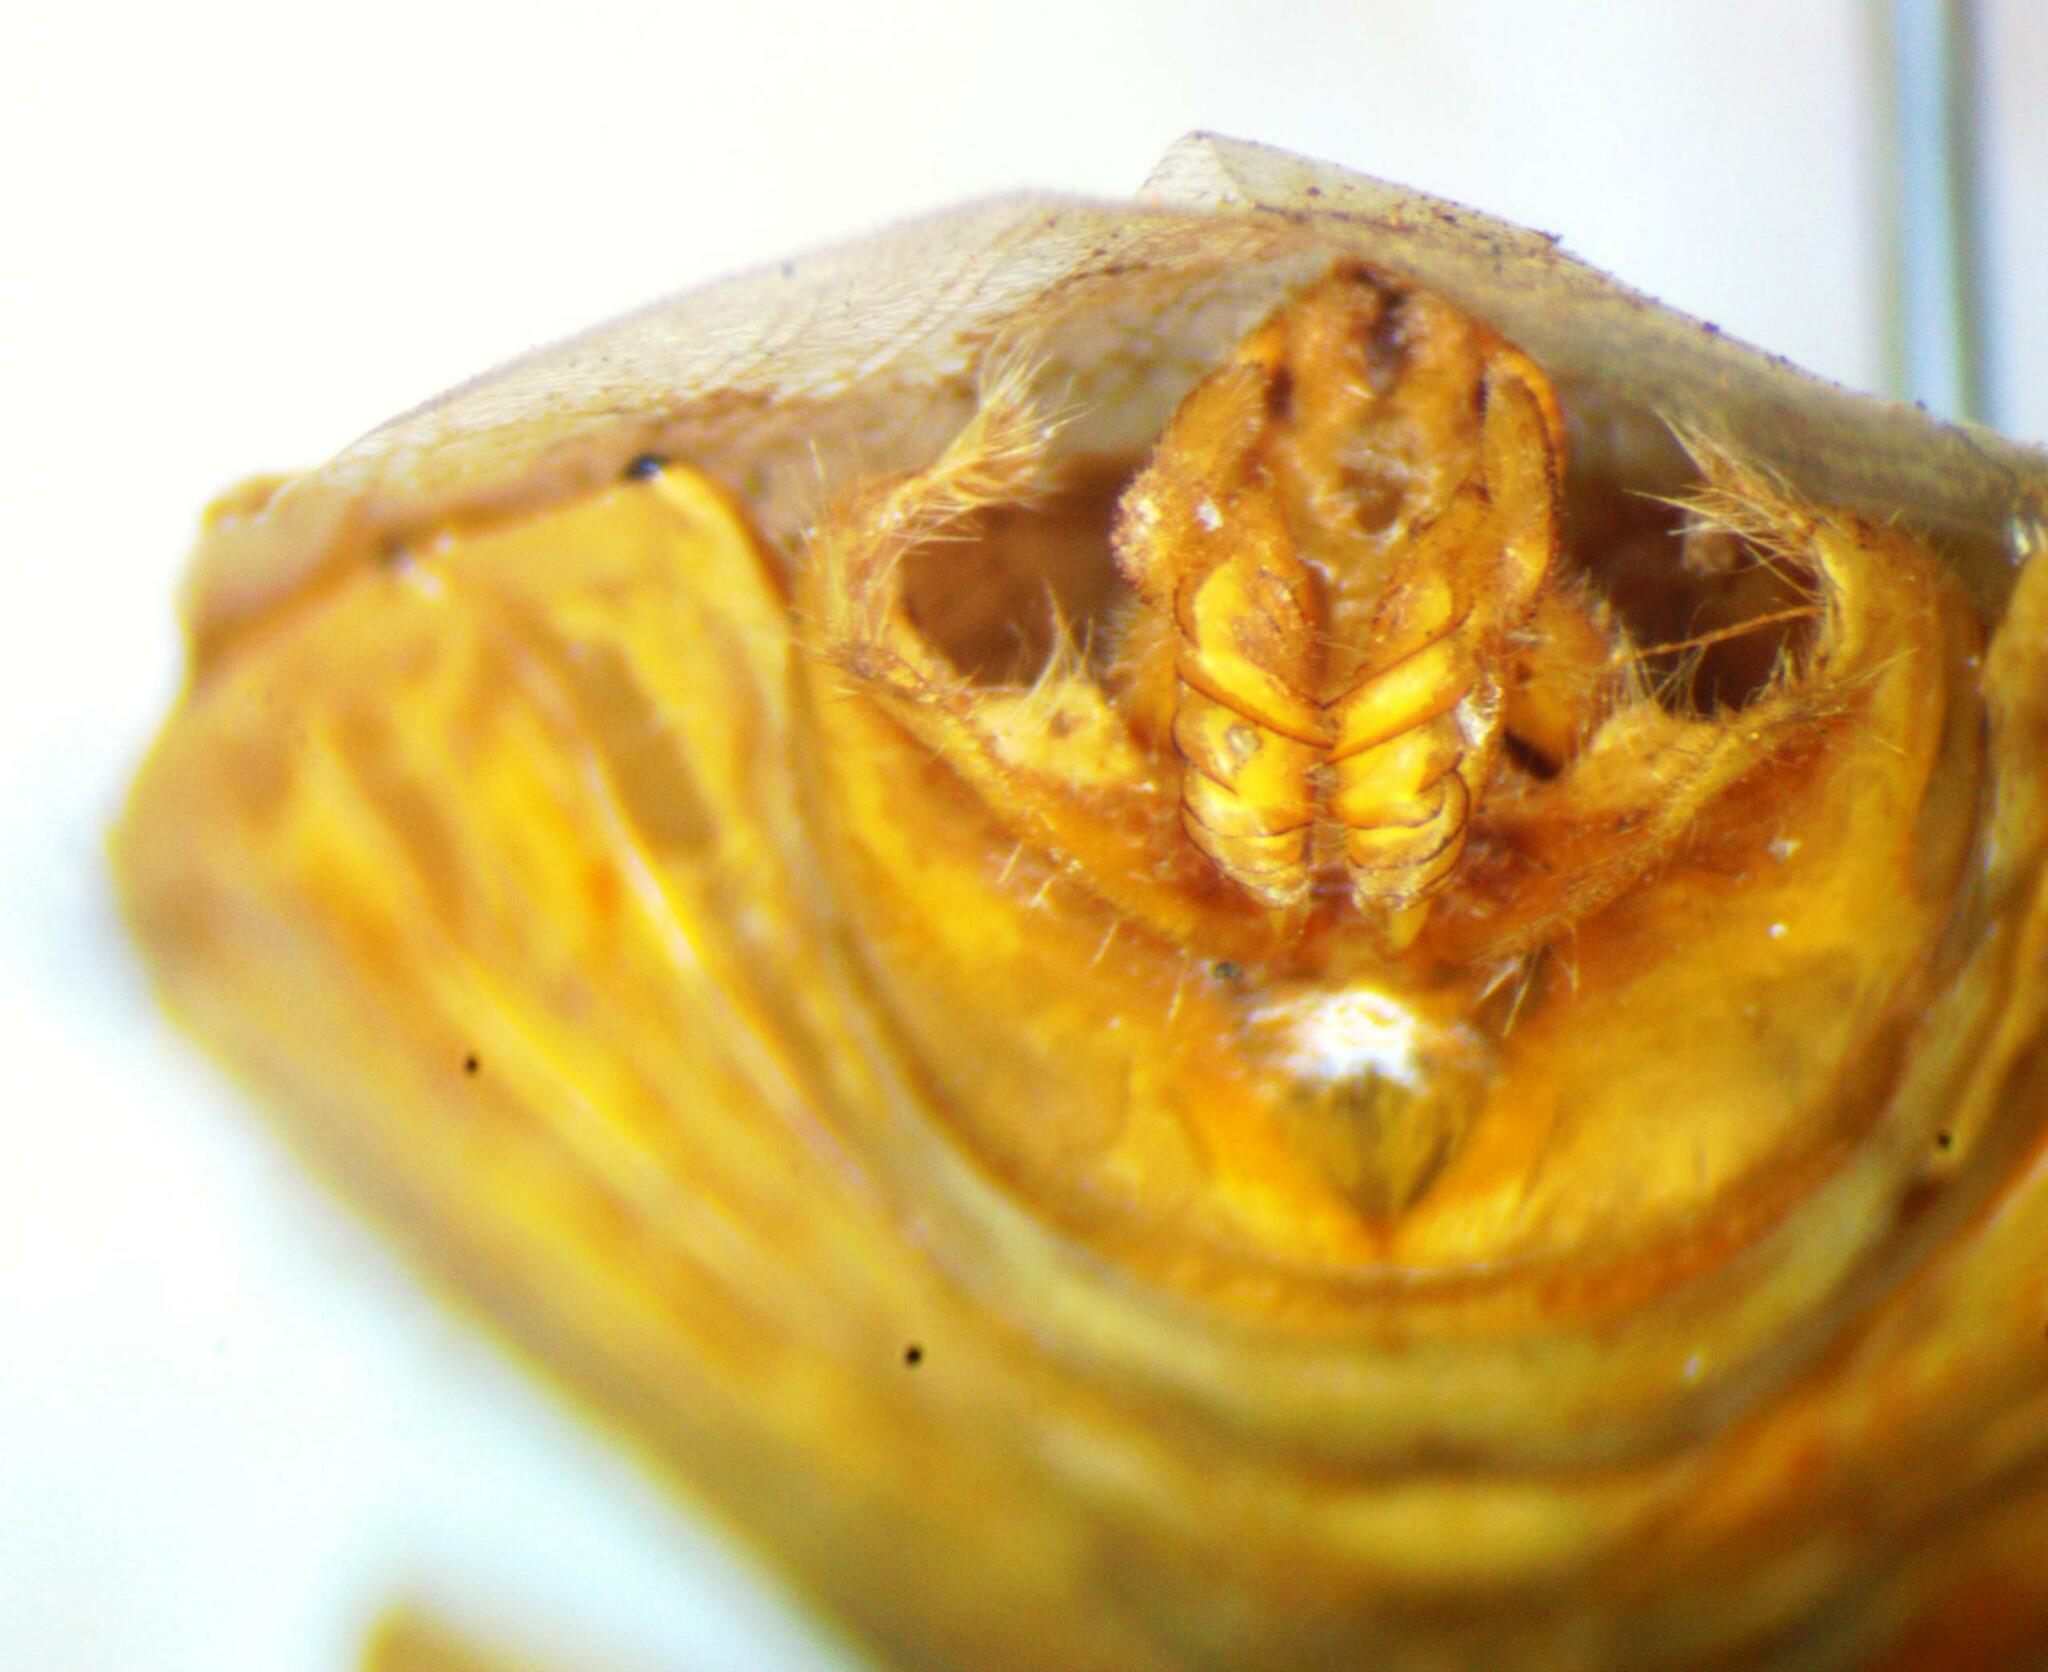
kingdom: Animalia
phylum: Arthropoda
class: Insecta
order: Hemiptera
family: Pentatomidae
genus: Chlorocoris
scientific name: Chlorocoris rufispinus
